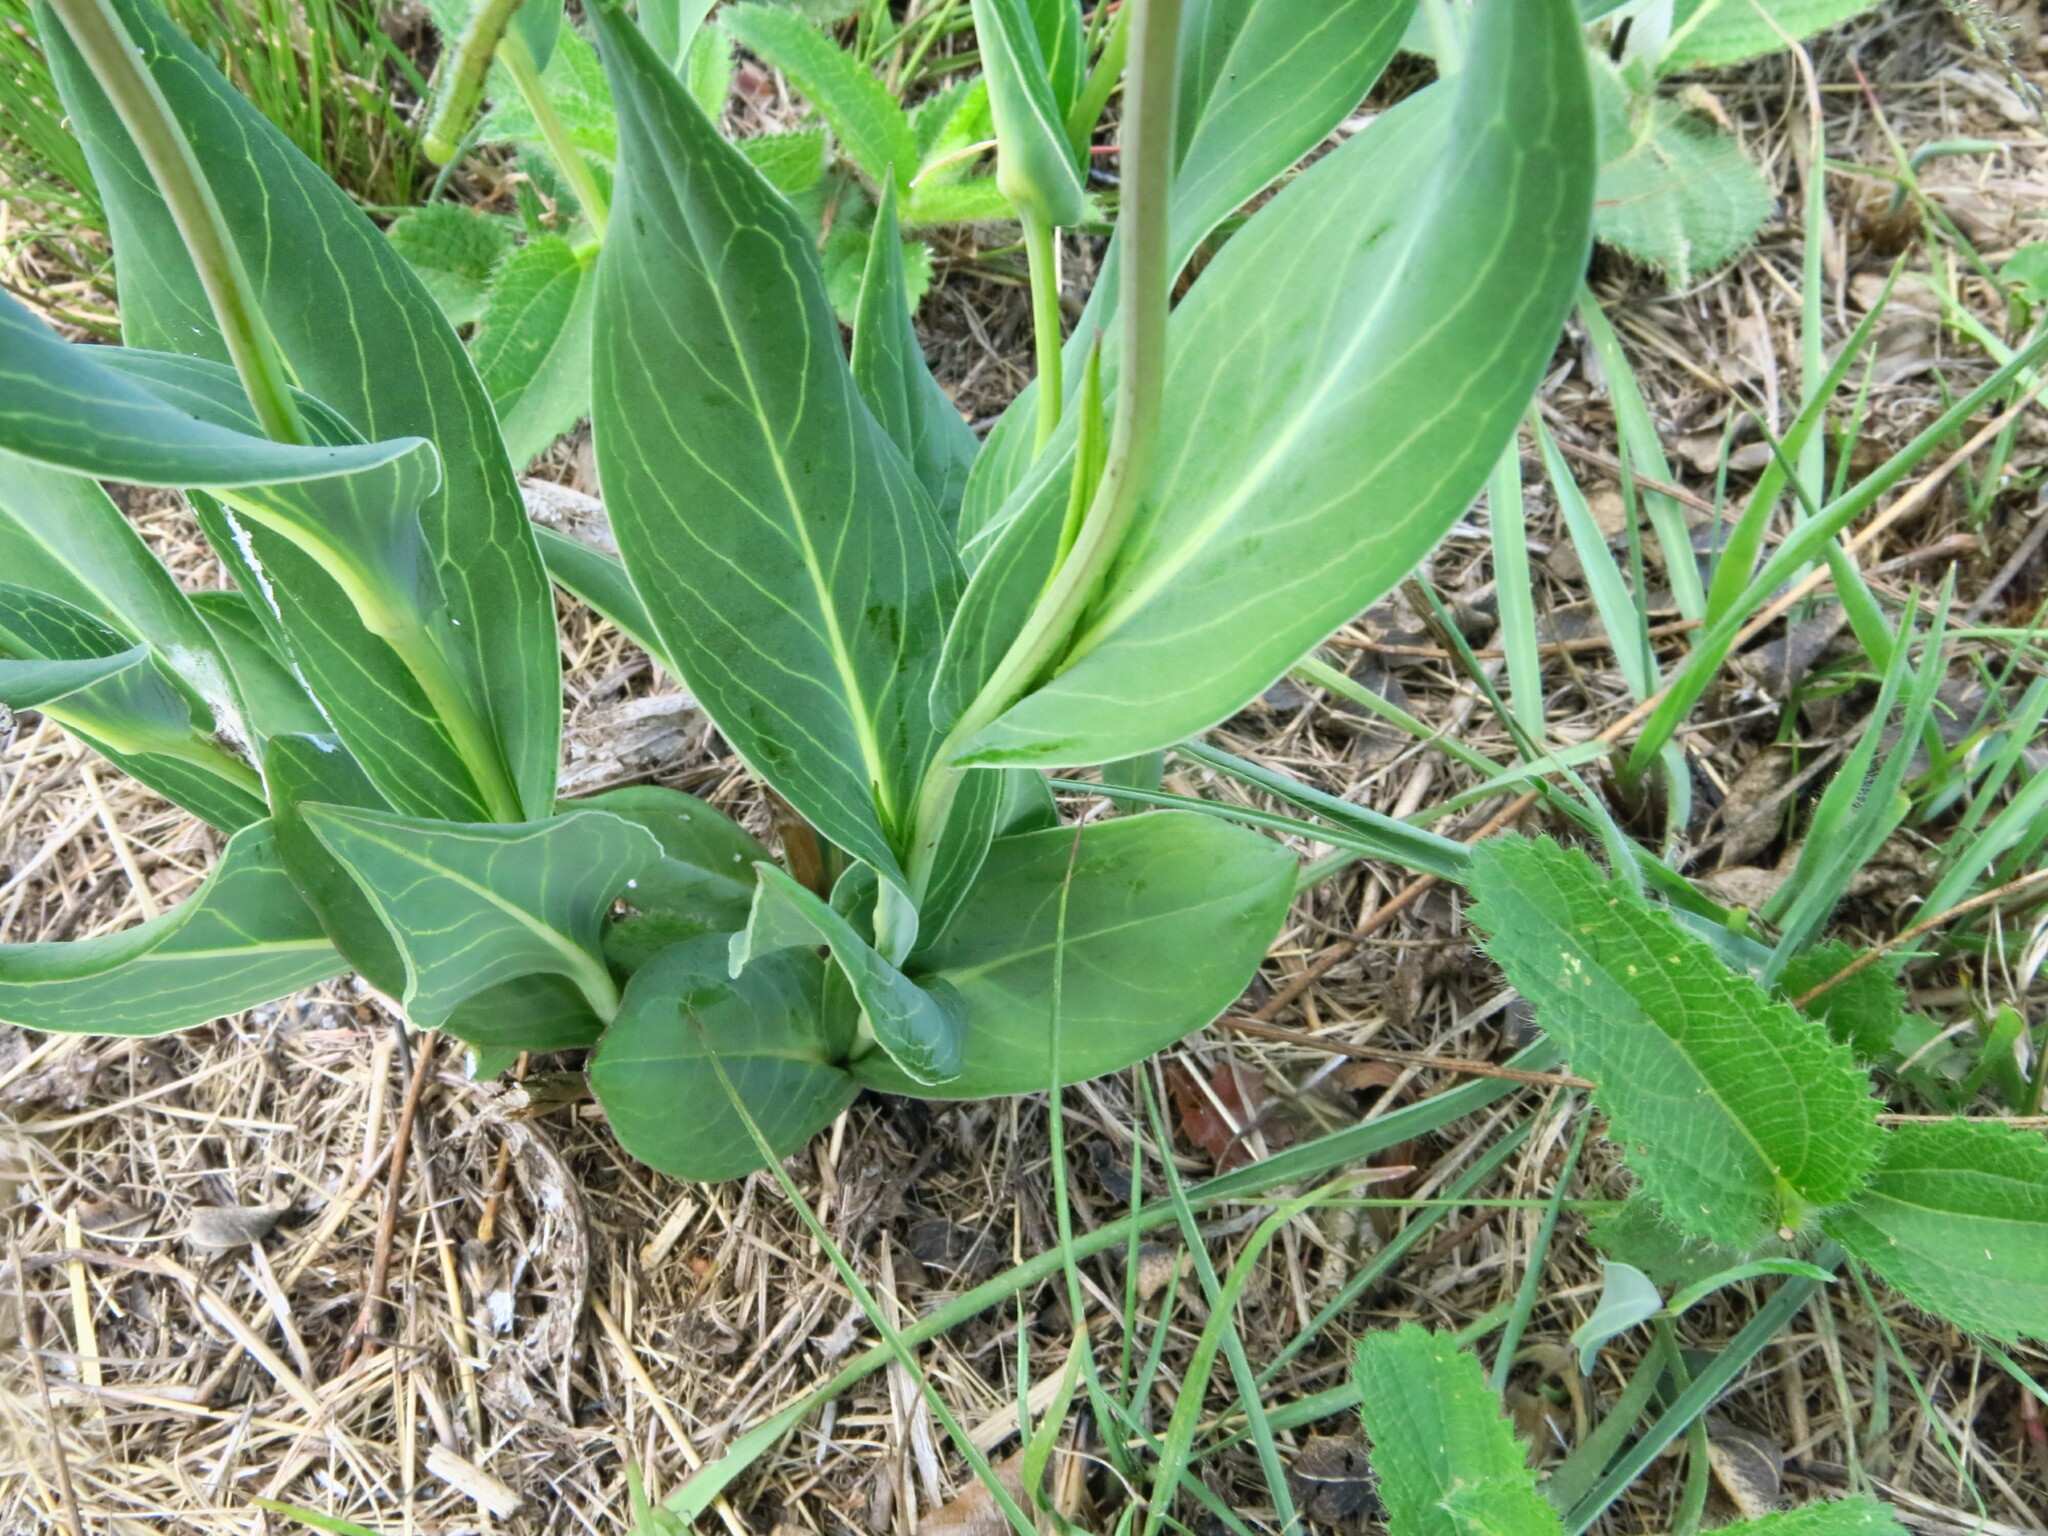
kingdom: Plantae
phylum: Tracheophyta
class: Magnoliopsida
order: Asterales
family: Asteraceae
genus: Senecio
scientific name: Senecio glaberrimus
